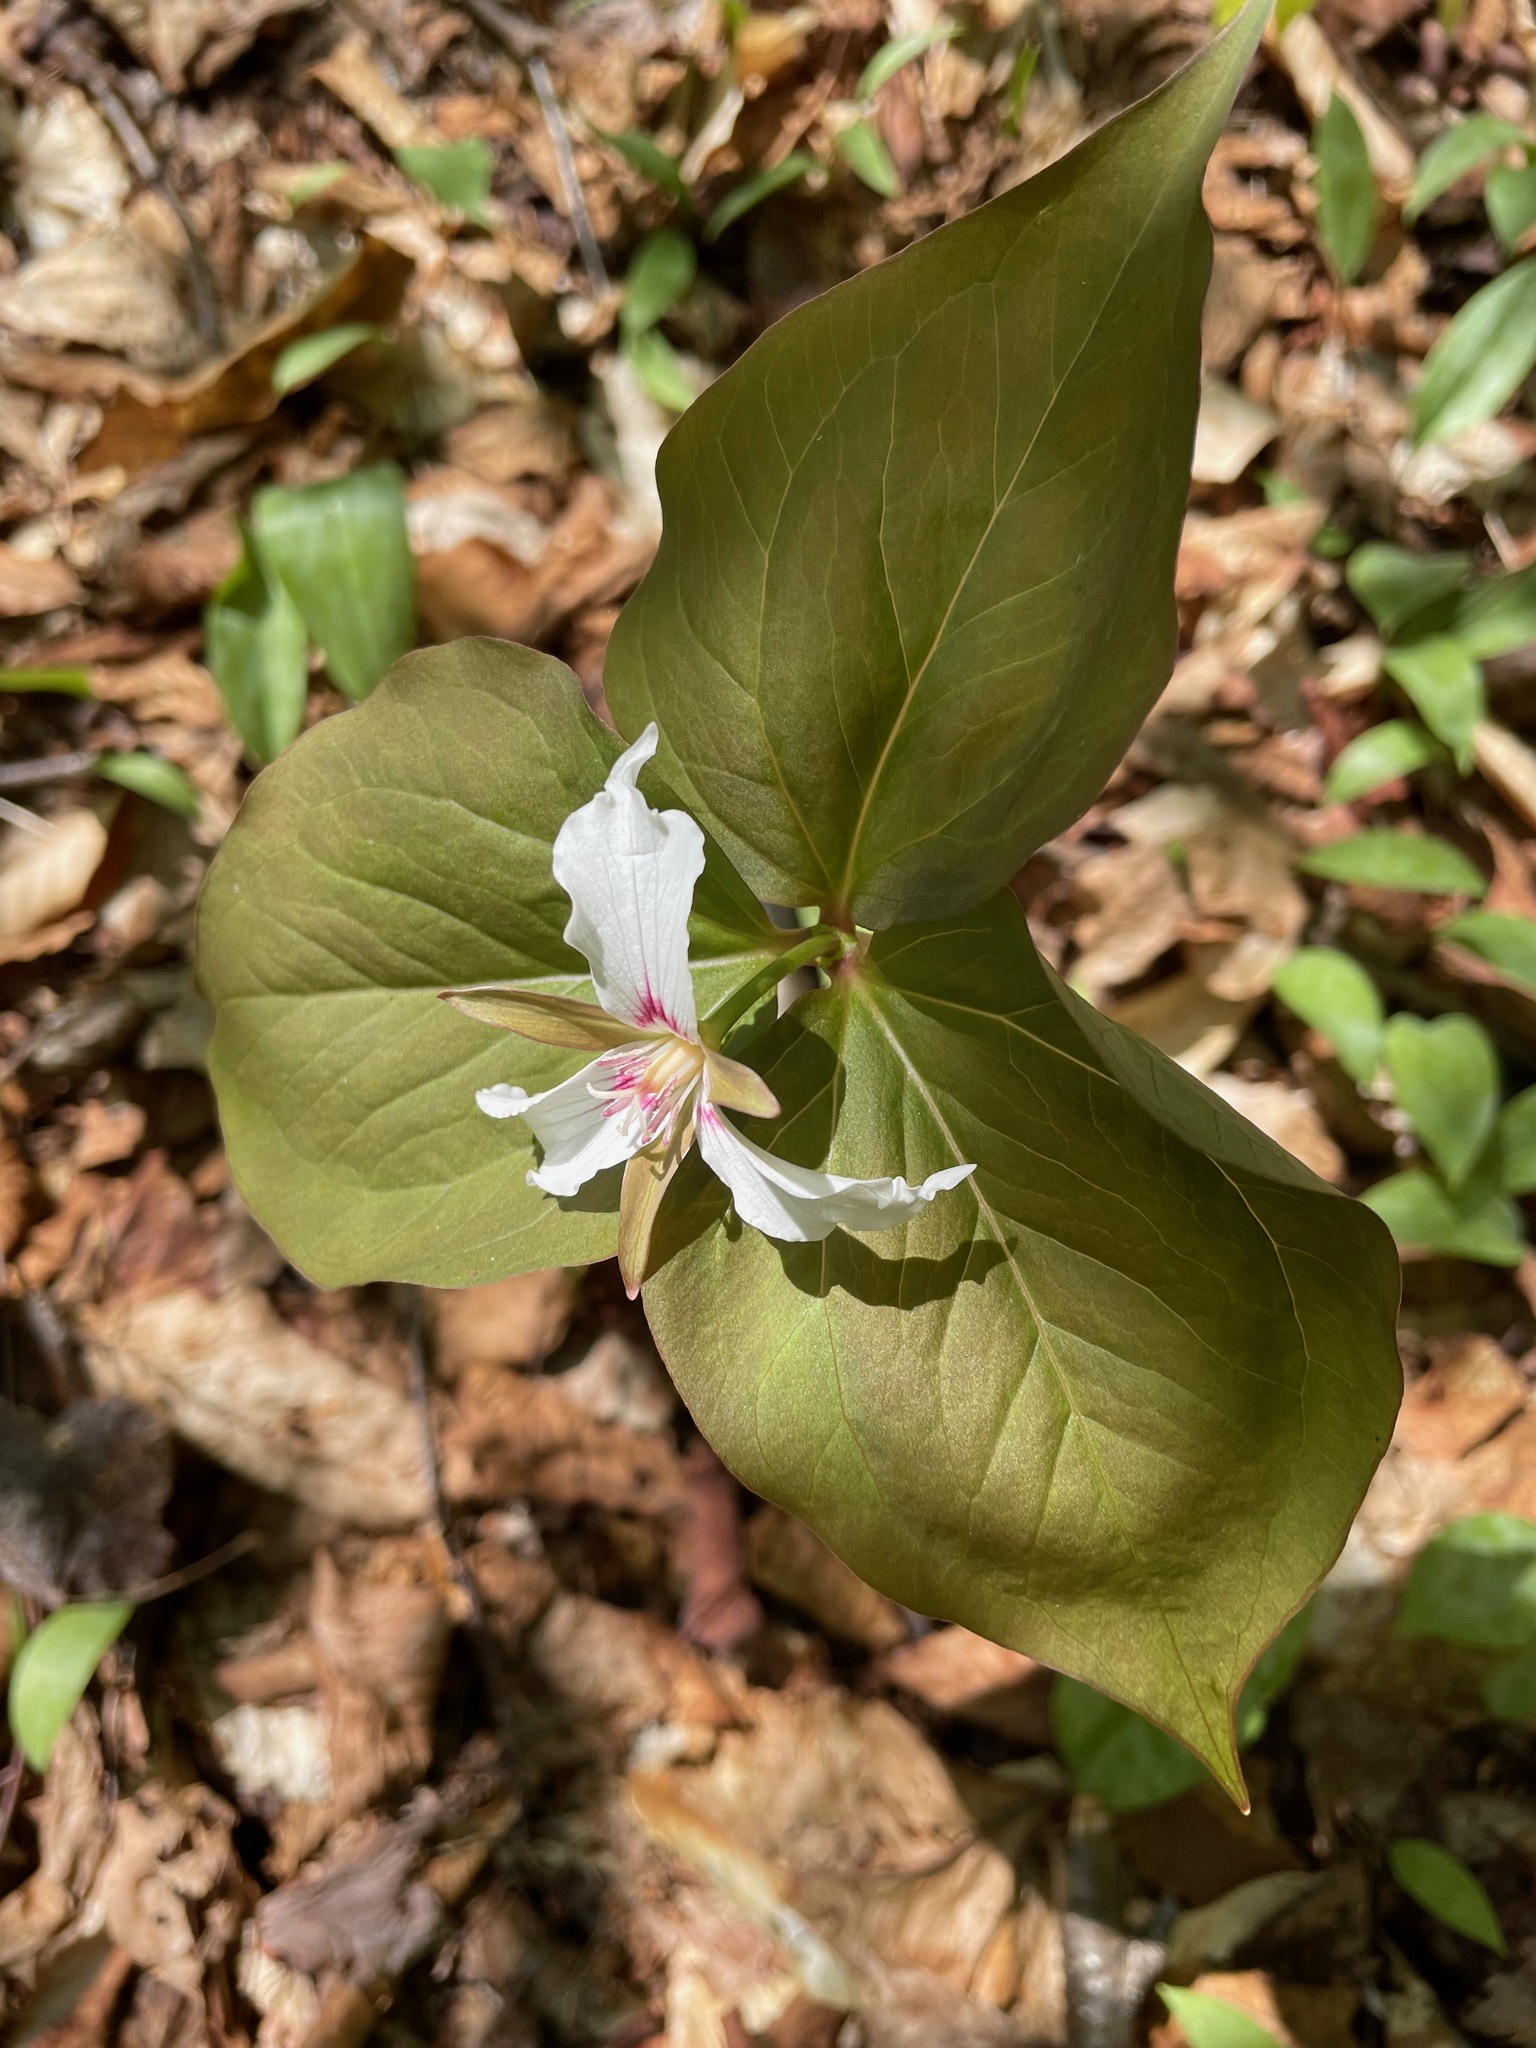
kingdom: Plantae
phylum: Tracheophyta
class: Liliopsida
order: Liliales
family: Melanthiaceae
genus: Trillium
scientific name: Trillium undulatum
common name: Paint trillium
